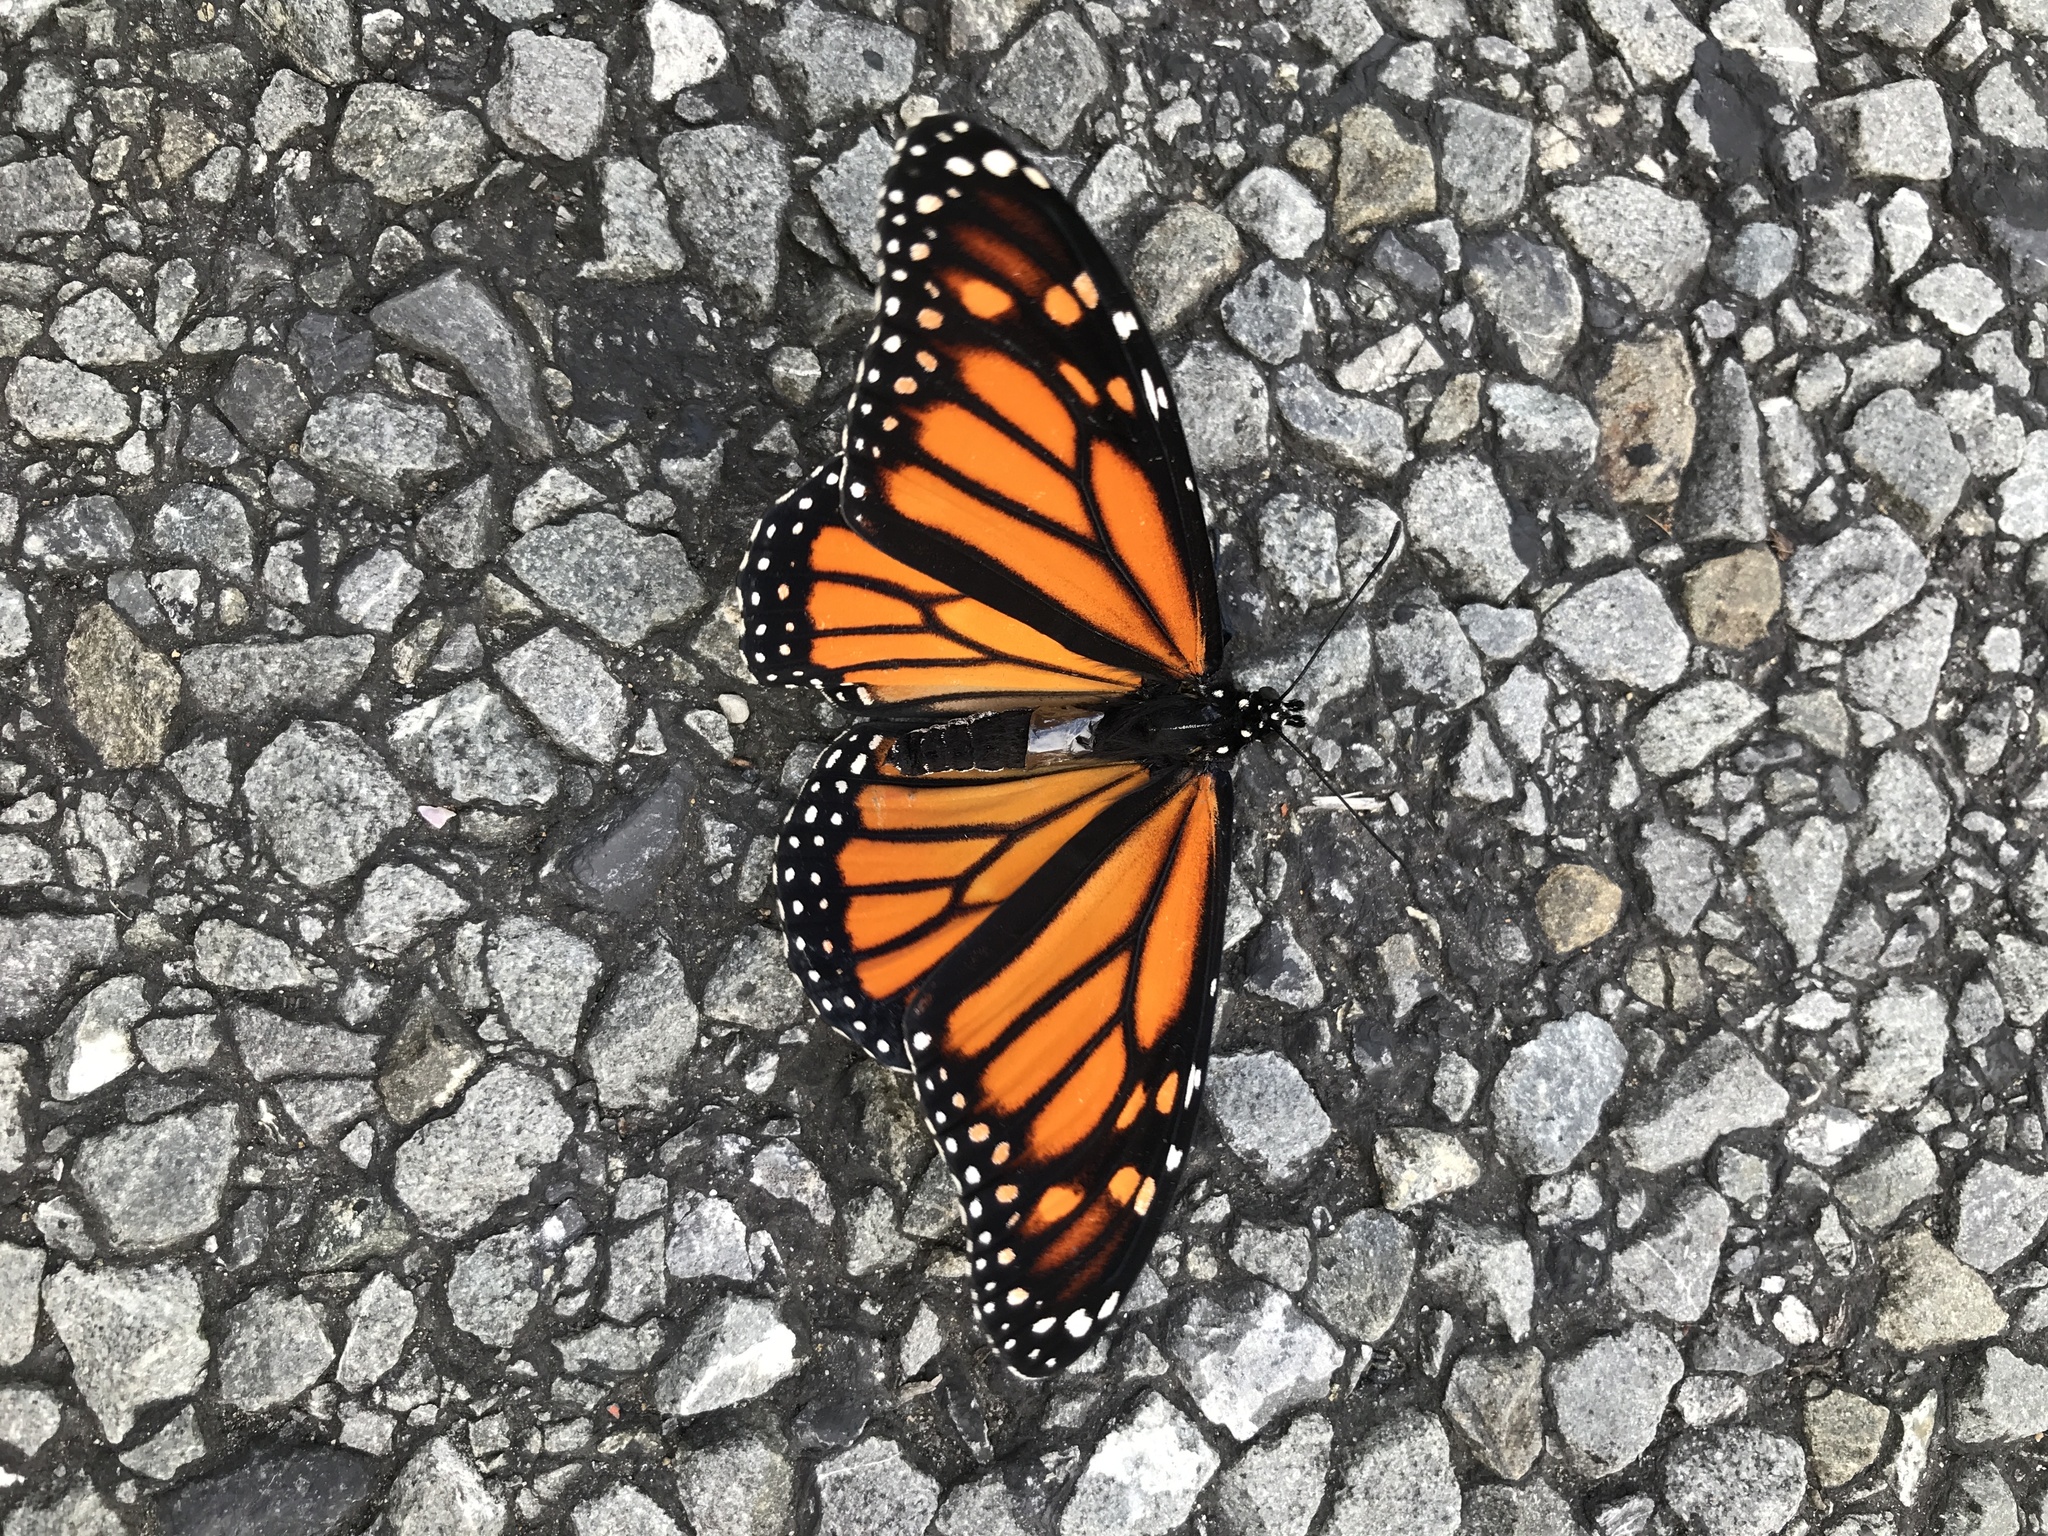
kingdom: Animalia
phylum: Arthropoda
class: Insecta
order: Lepidoptera
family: Nymphalidae
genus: Danaus
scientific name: Danaus plexippus
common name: Monarch
